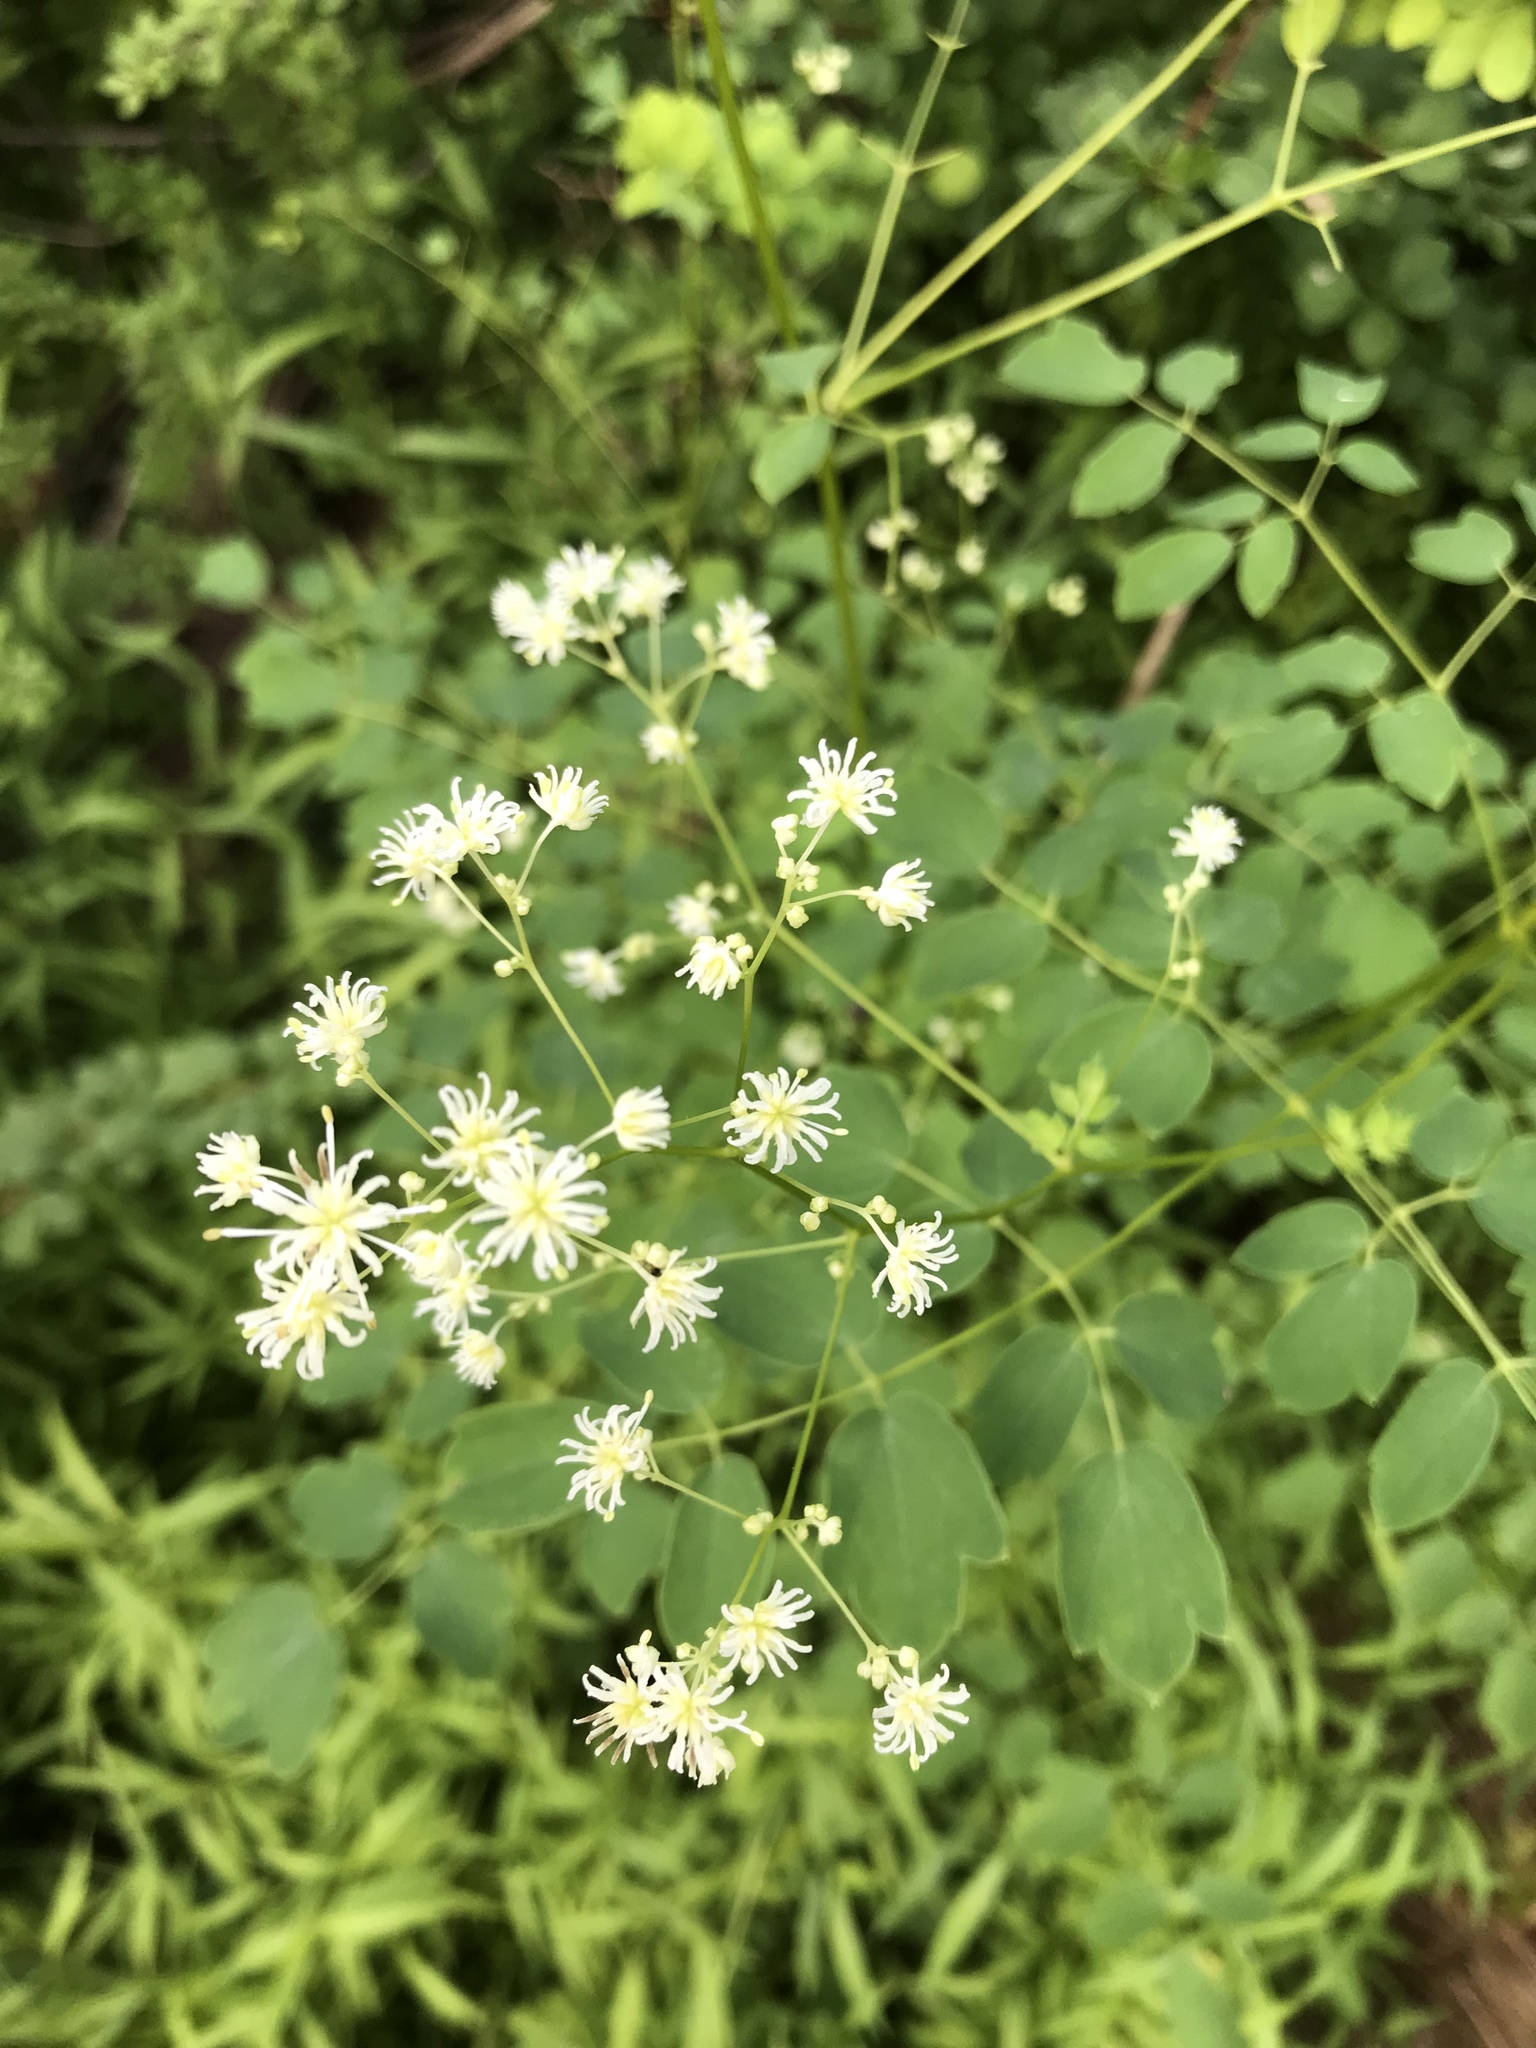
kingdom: Plantae
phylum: Tracheophyta
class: Magnoliopsida
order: Ranunculales
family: Ranunculaceae
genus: Thalictrum
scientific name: Thalictrum pubescens
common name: King-of-the-meadow
